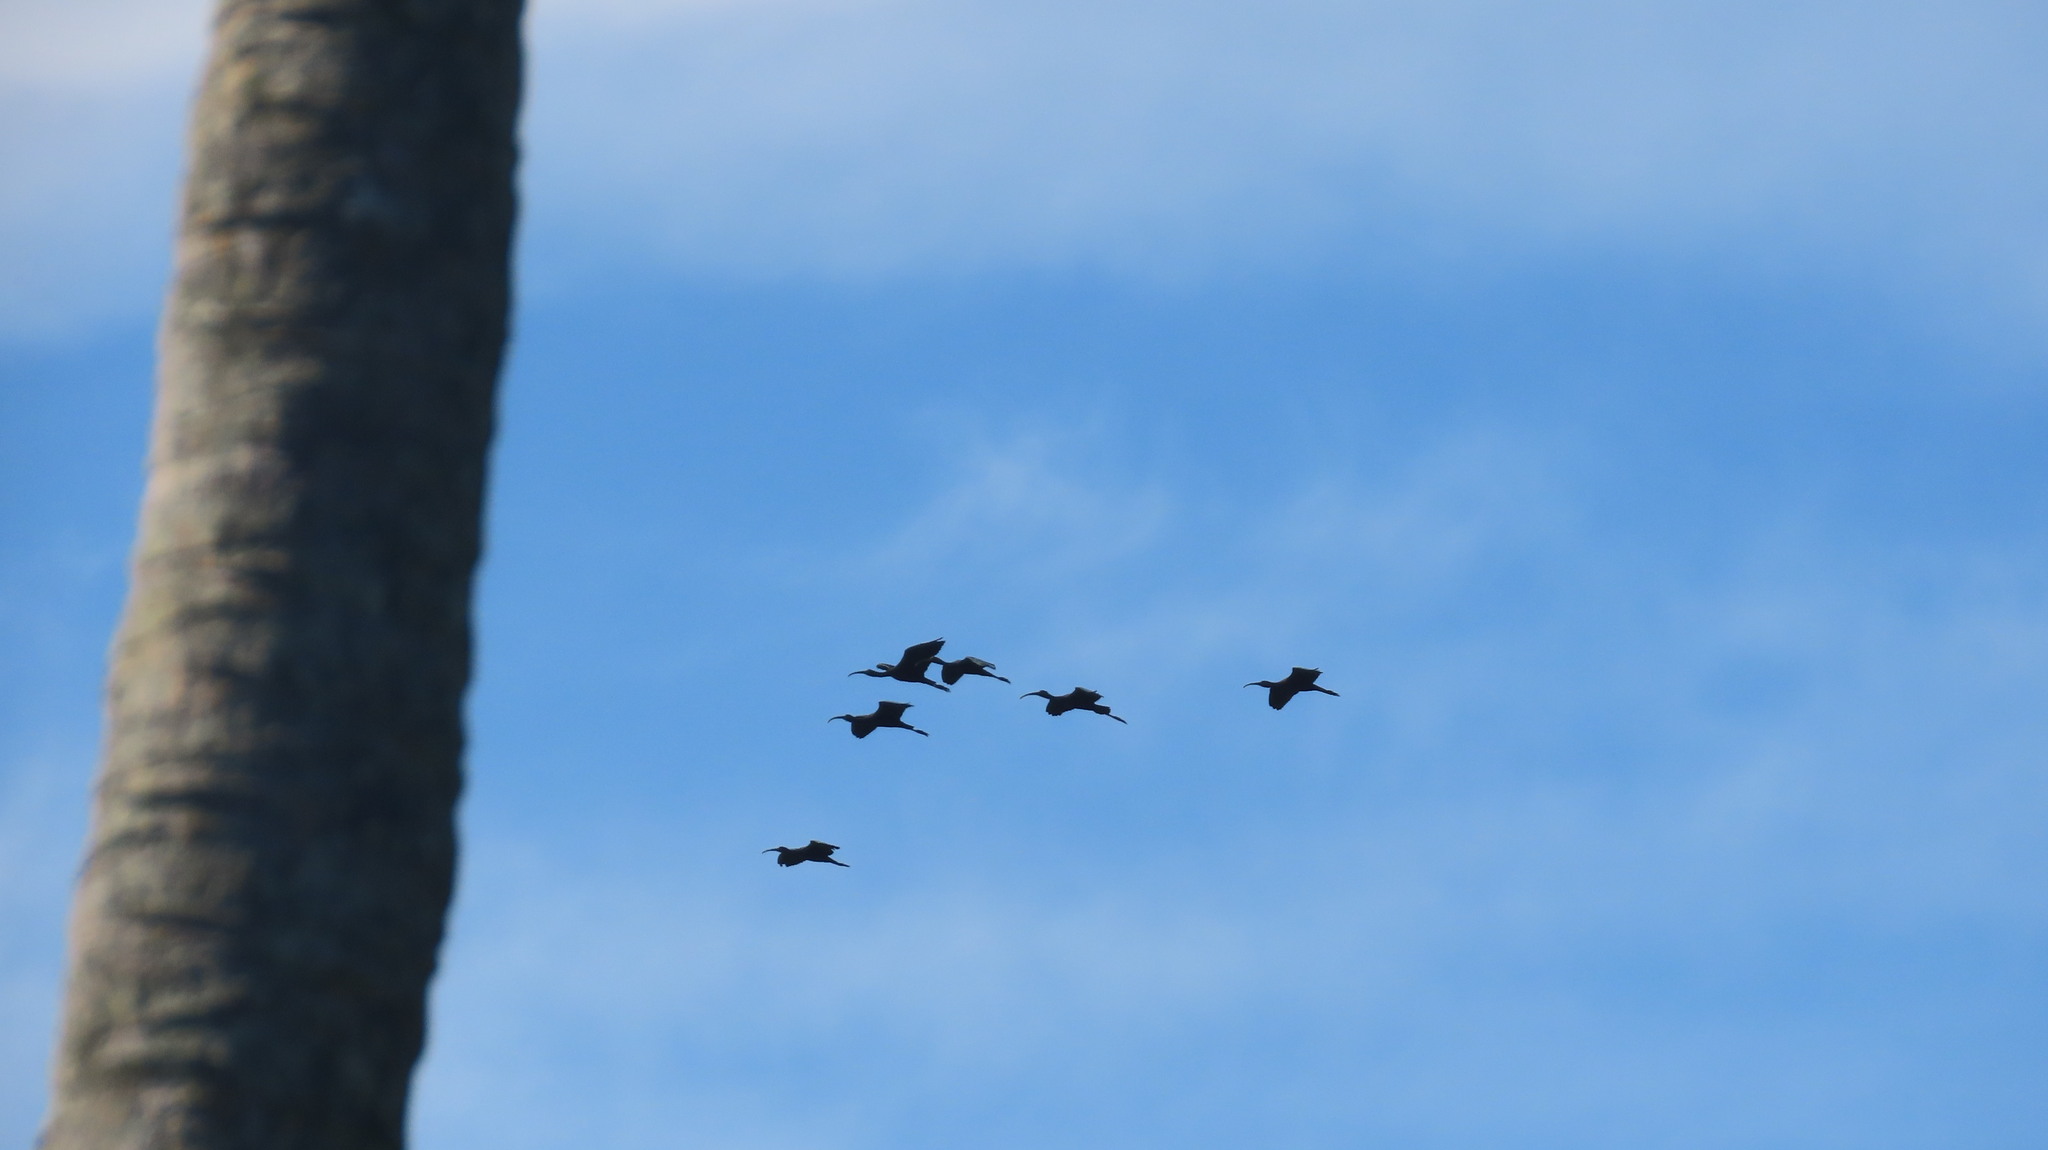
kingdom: Animalia
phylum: Chordata
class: Aves
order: Pelecaniformes
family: Threskiornithidae
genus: Plegadis
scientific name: Plegadis falcinellus
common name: Glossy ibis
